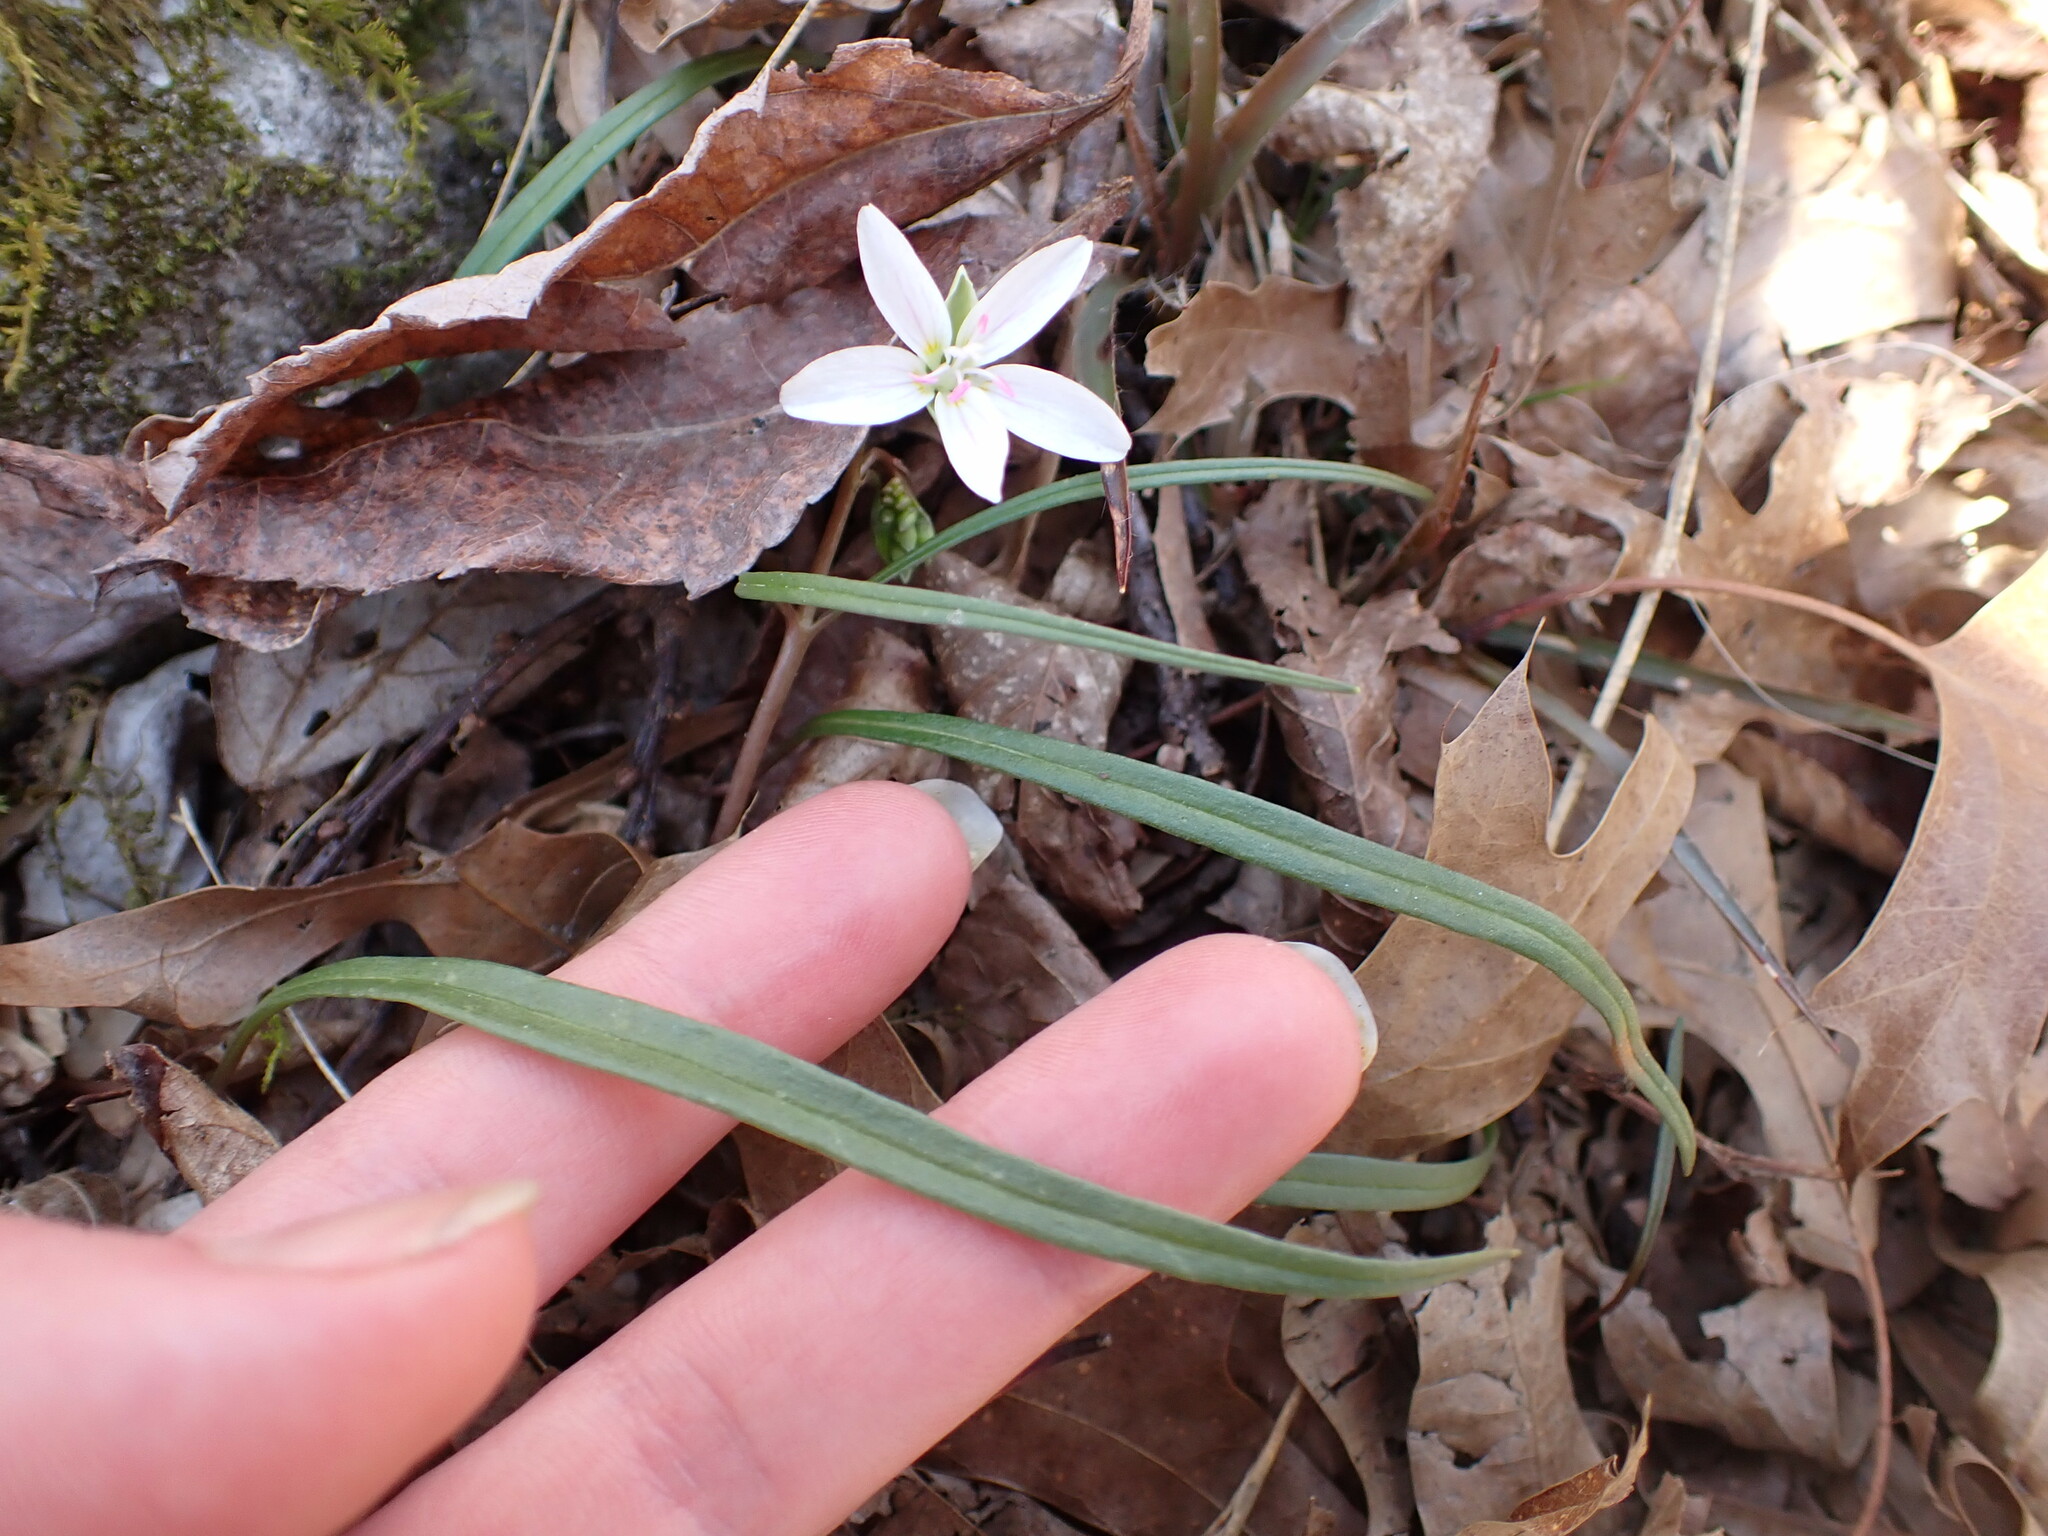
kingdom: Plantae
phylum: Tracheophyta
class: Magnoliopsida
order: Caryophyllales
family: Montiaceae
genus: Claytonia
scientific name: Claytonia virginica
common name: Virginia springbeauty
